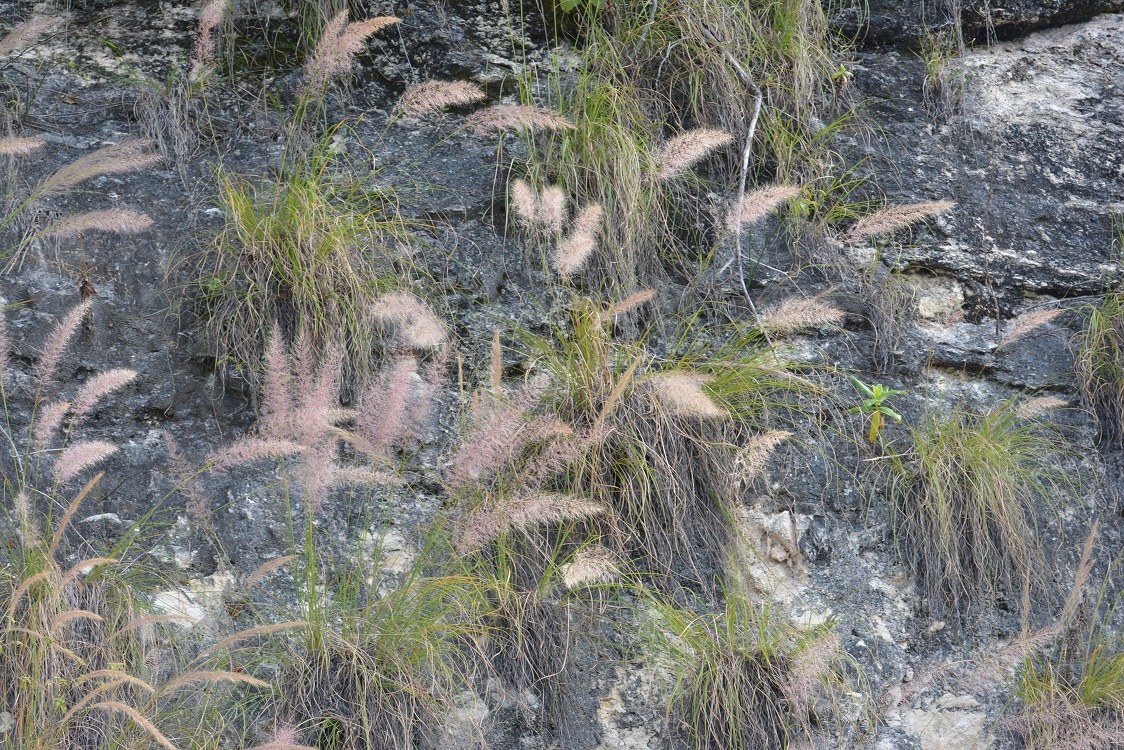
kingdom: Plantae
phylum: Tracheophyta
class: Liliopsida
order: Poales
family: Poaceae
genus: Muhlenbergia
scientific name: Muhlenbergia versicolor
